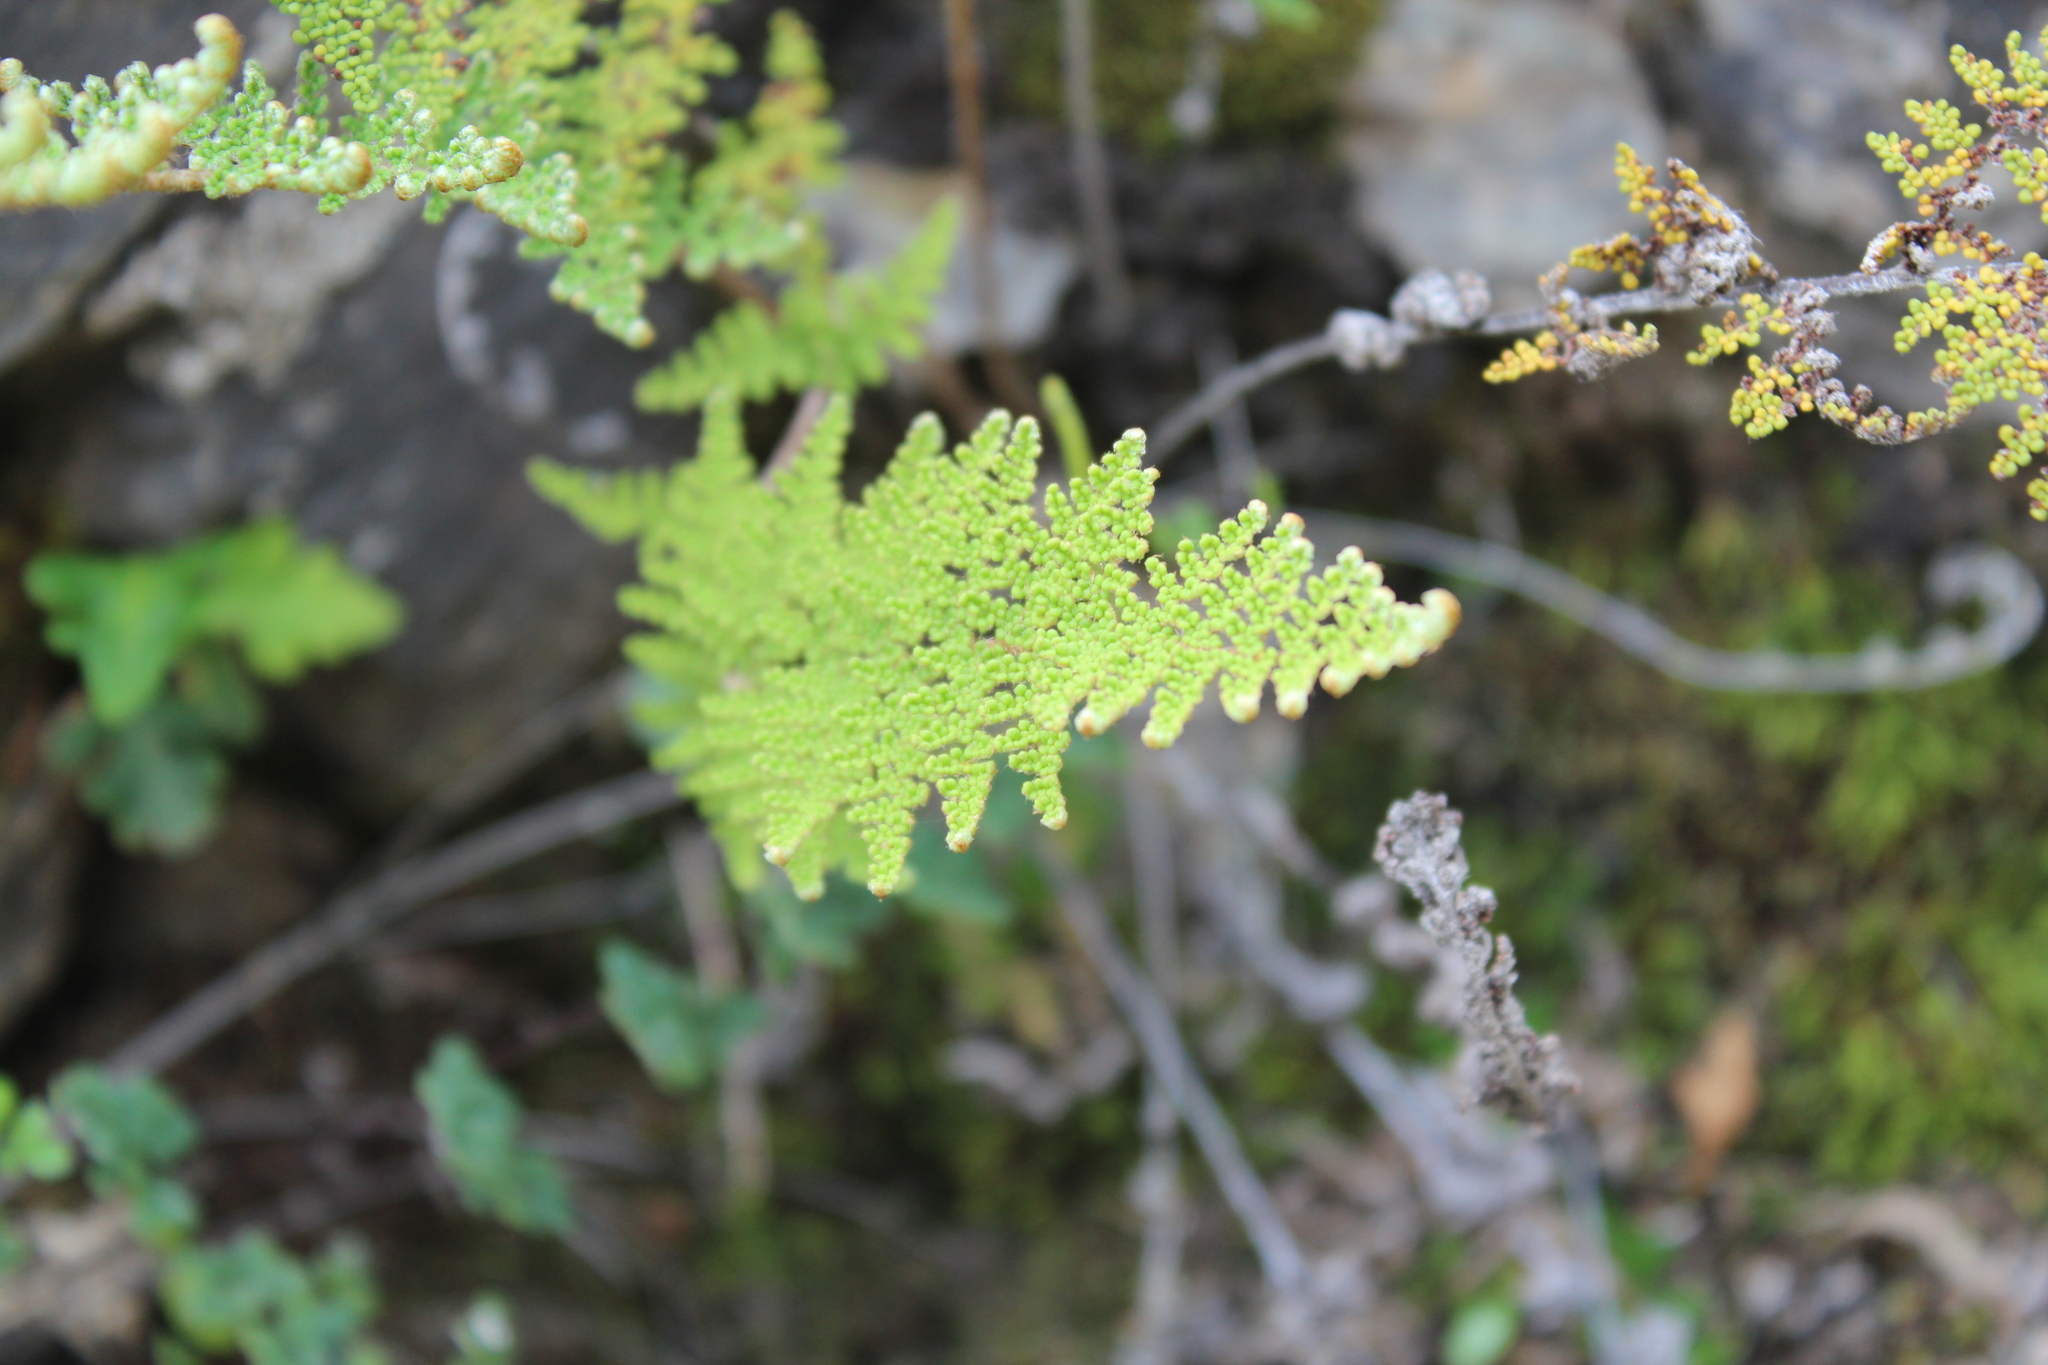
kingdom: Plantae
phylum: Tracheophyta
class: Polypodiopsida
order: Polypodiales
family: Pteridaceae
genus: Myriopteris
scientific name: Myriopteris myriophylla
